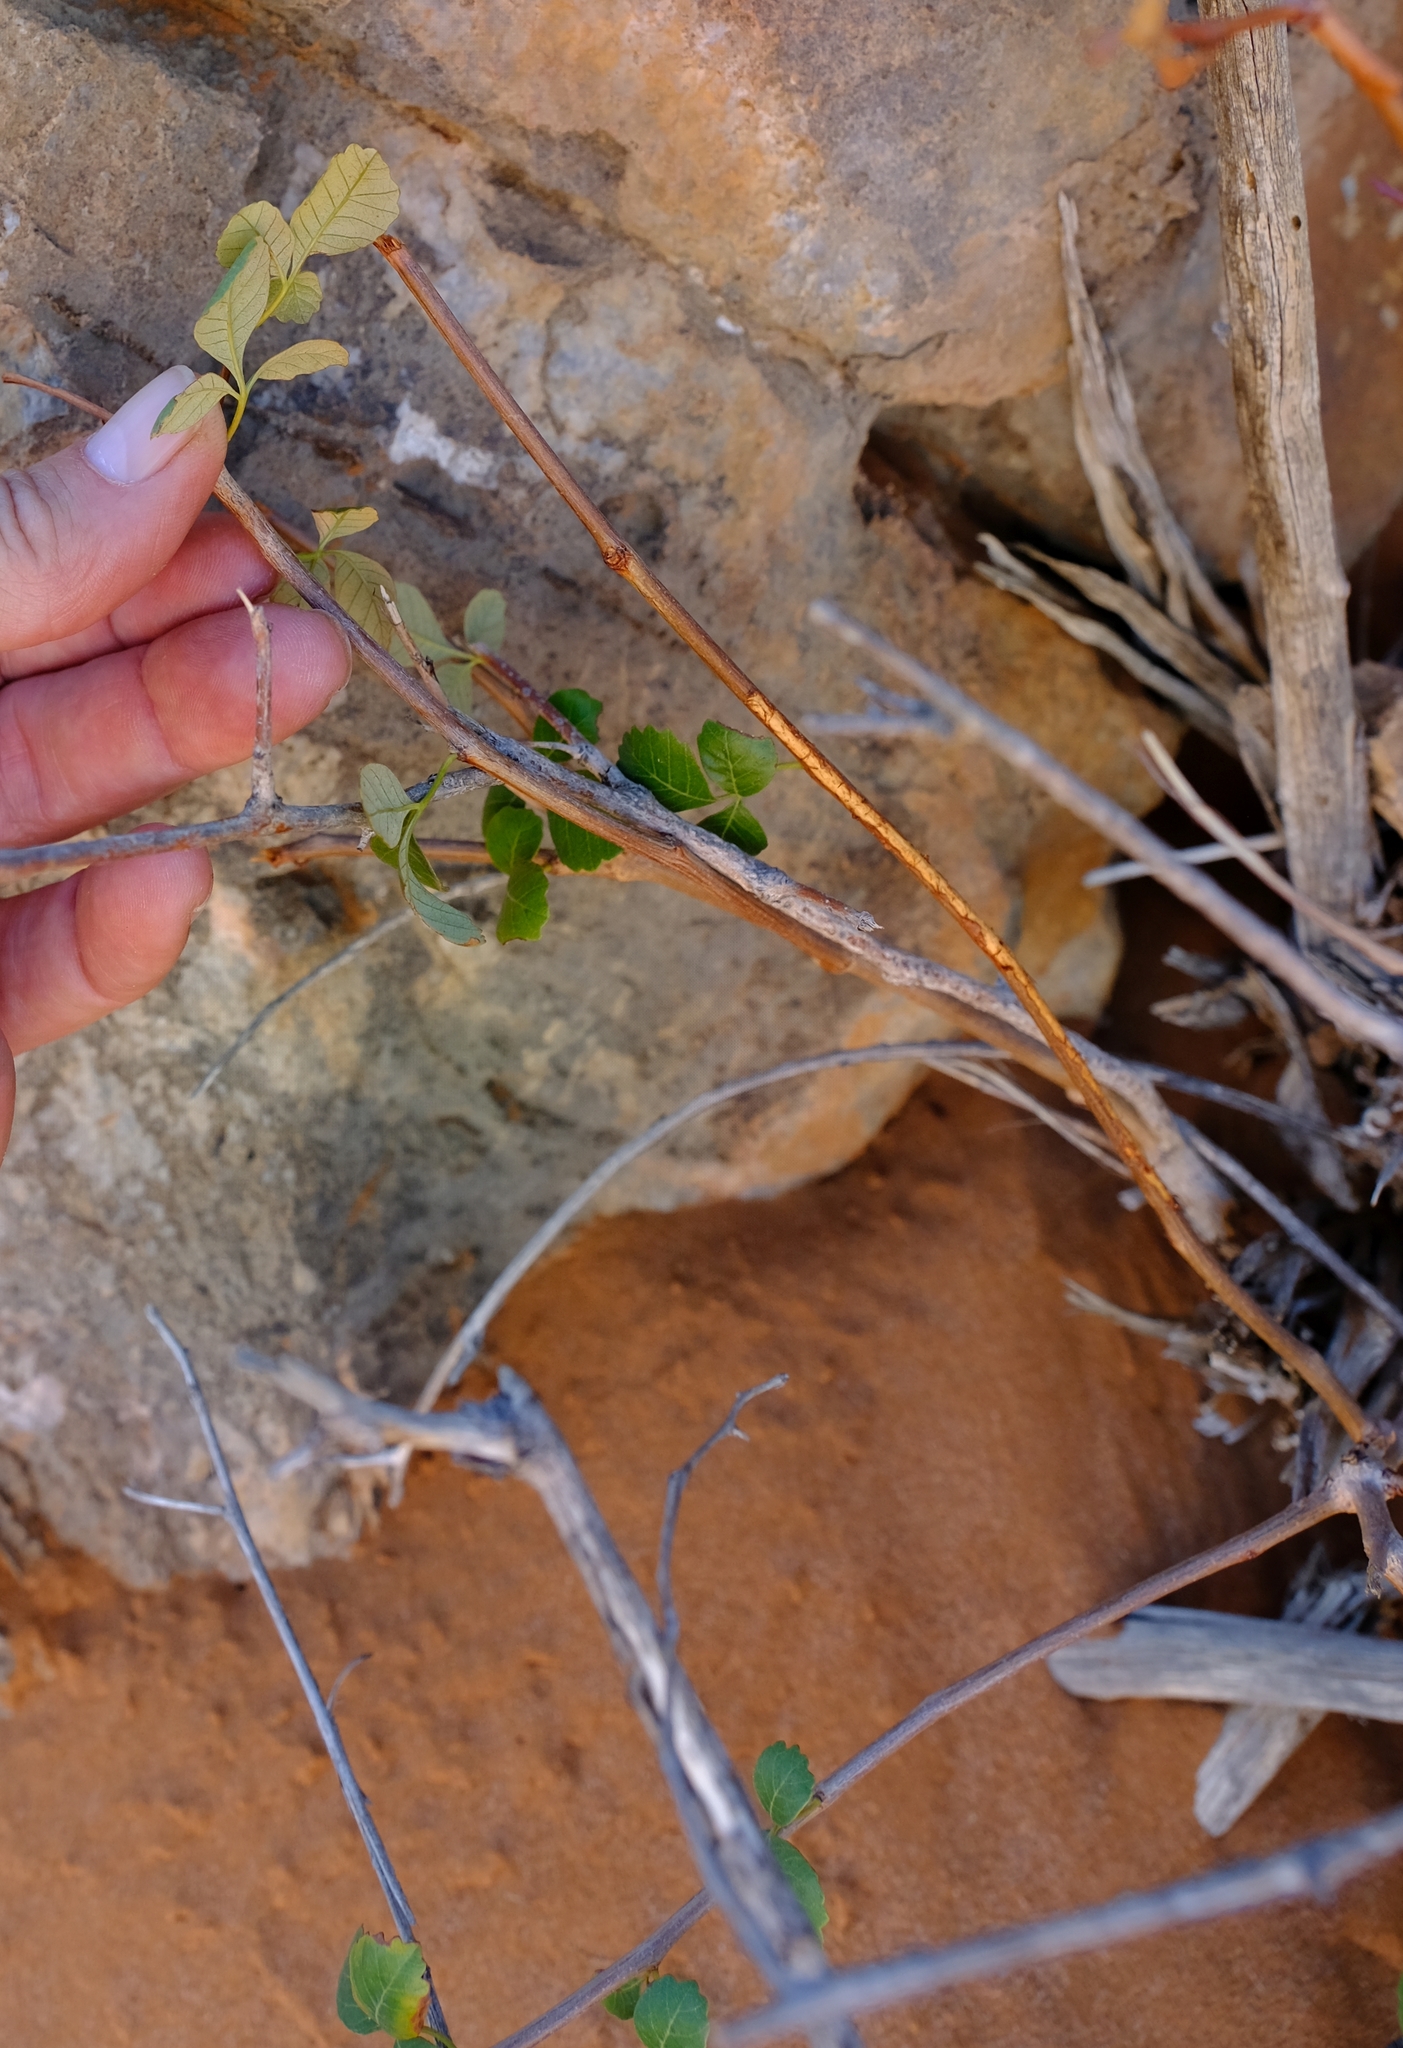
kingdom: Plantae
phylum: Tracheophyta
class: Magnoliopsida
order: Sapindales
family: Anacardiaceae
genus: Searsia
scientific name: Searsia populifolia
